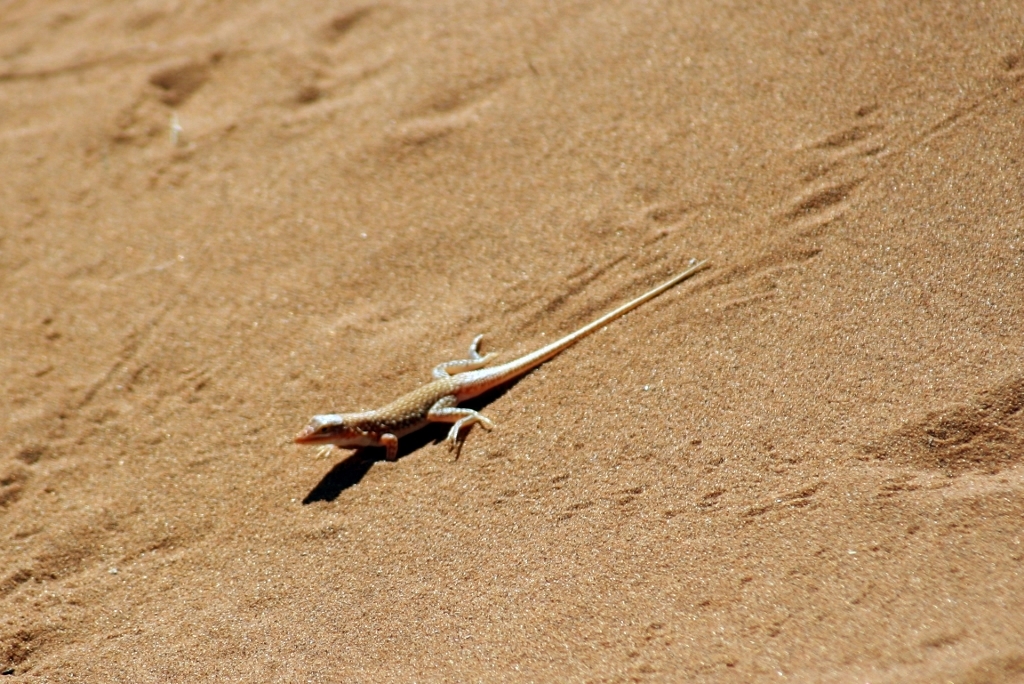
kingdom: Animalia
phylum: Chordata
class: Squamata
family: Lacertidae
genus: Meroles
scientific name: Meroles cuneirostris
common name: Wedge-snouted desert lizard
